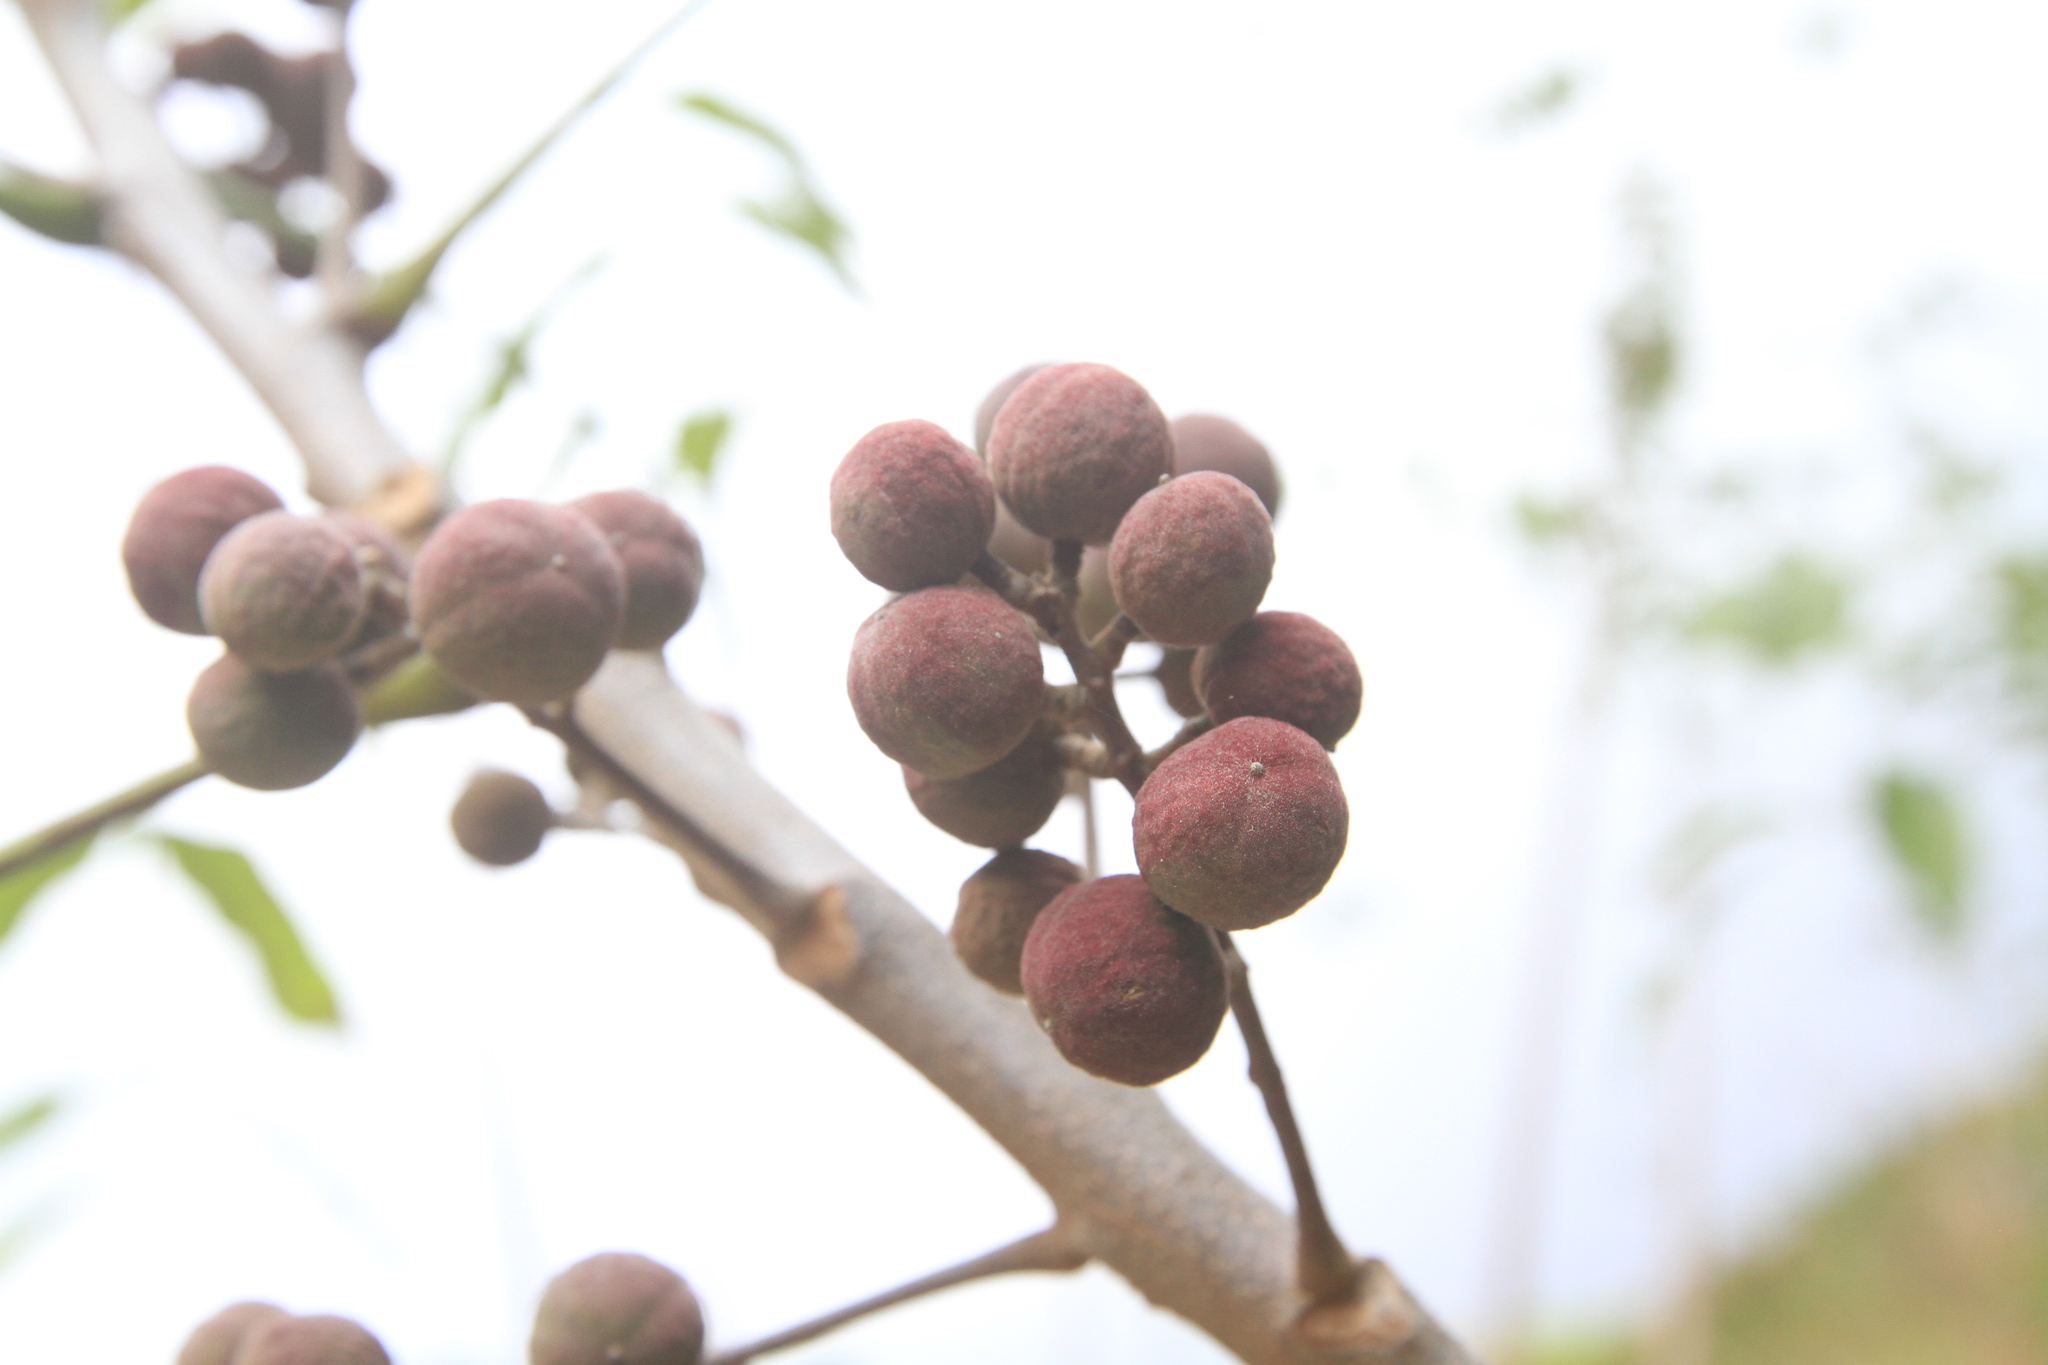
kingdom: Plantae
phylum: Tracheophyta
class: Magnoliopsida
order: Sapindales
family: Burseraceae
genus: Bursera
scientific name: Bursera simaruba
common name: Turpentine tree
